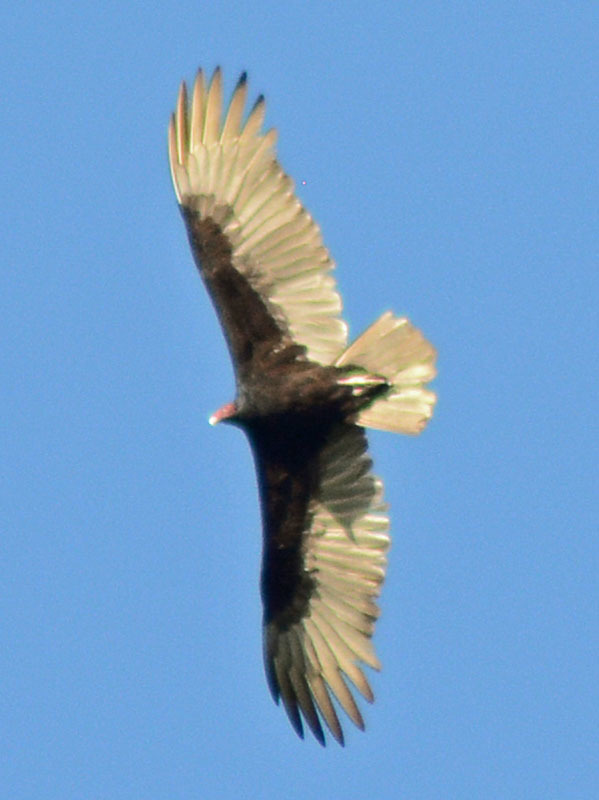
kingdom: Animalia
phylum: Chordata
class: Aves
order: Accipitriformes
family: Cathartidae
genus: Cathartes
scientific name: Cathartes aura
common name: Turkey vulture
